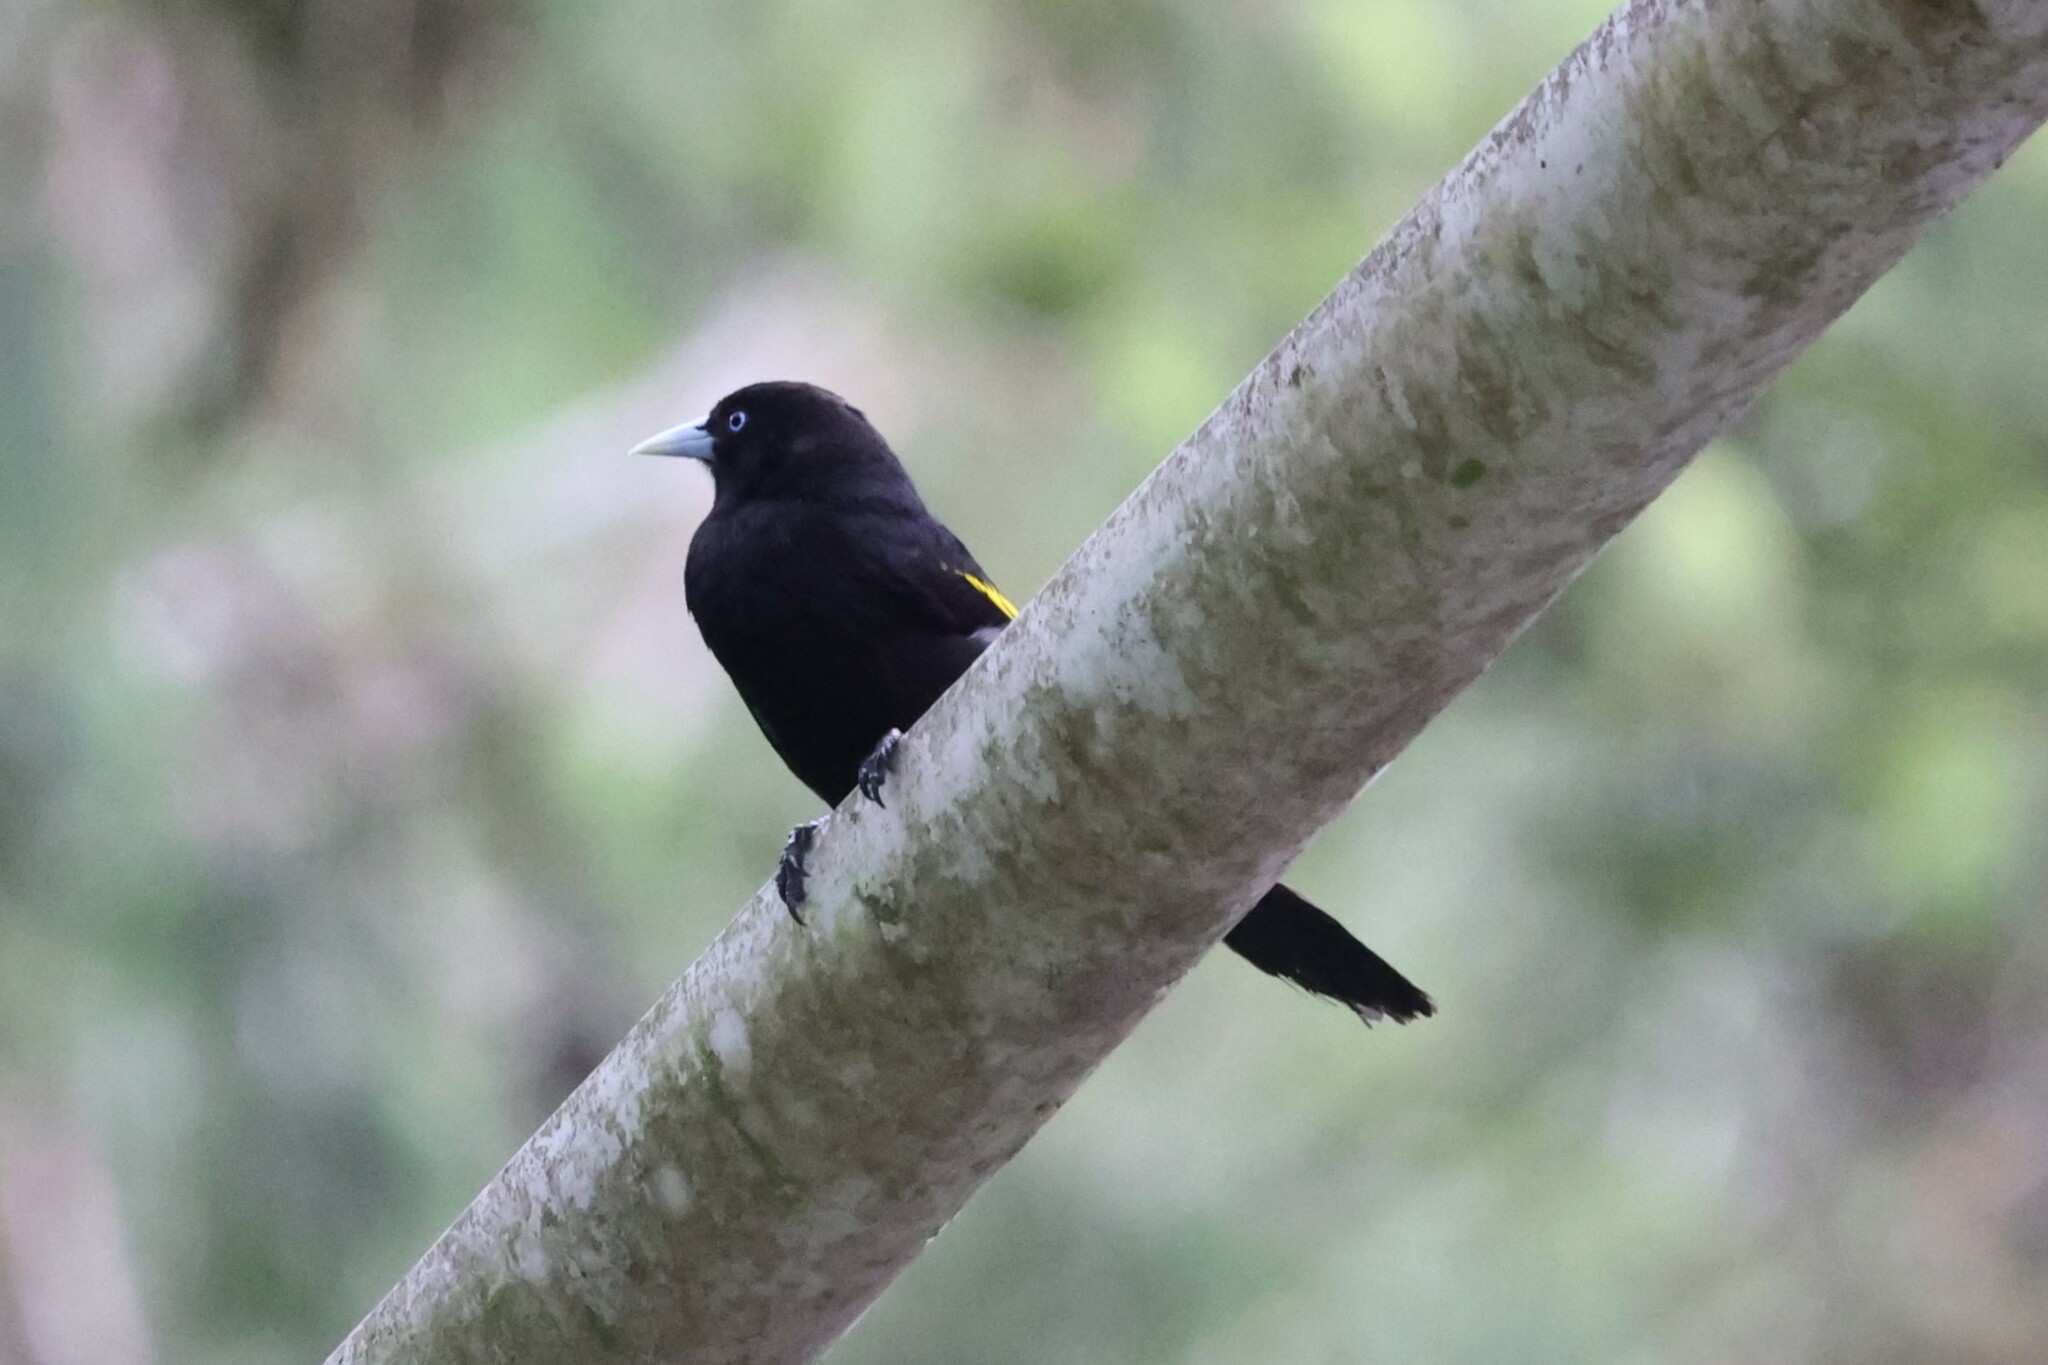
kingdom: Animalia
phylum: Chordata
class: Aves
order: Passeriformes
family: Icteridae
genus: Cacicus
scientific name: Cacicus chrysonotus
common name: Southern mountain cacique
